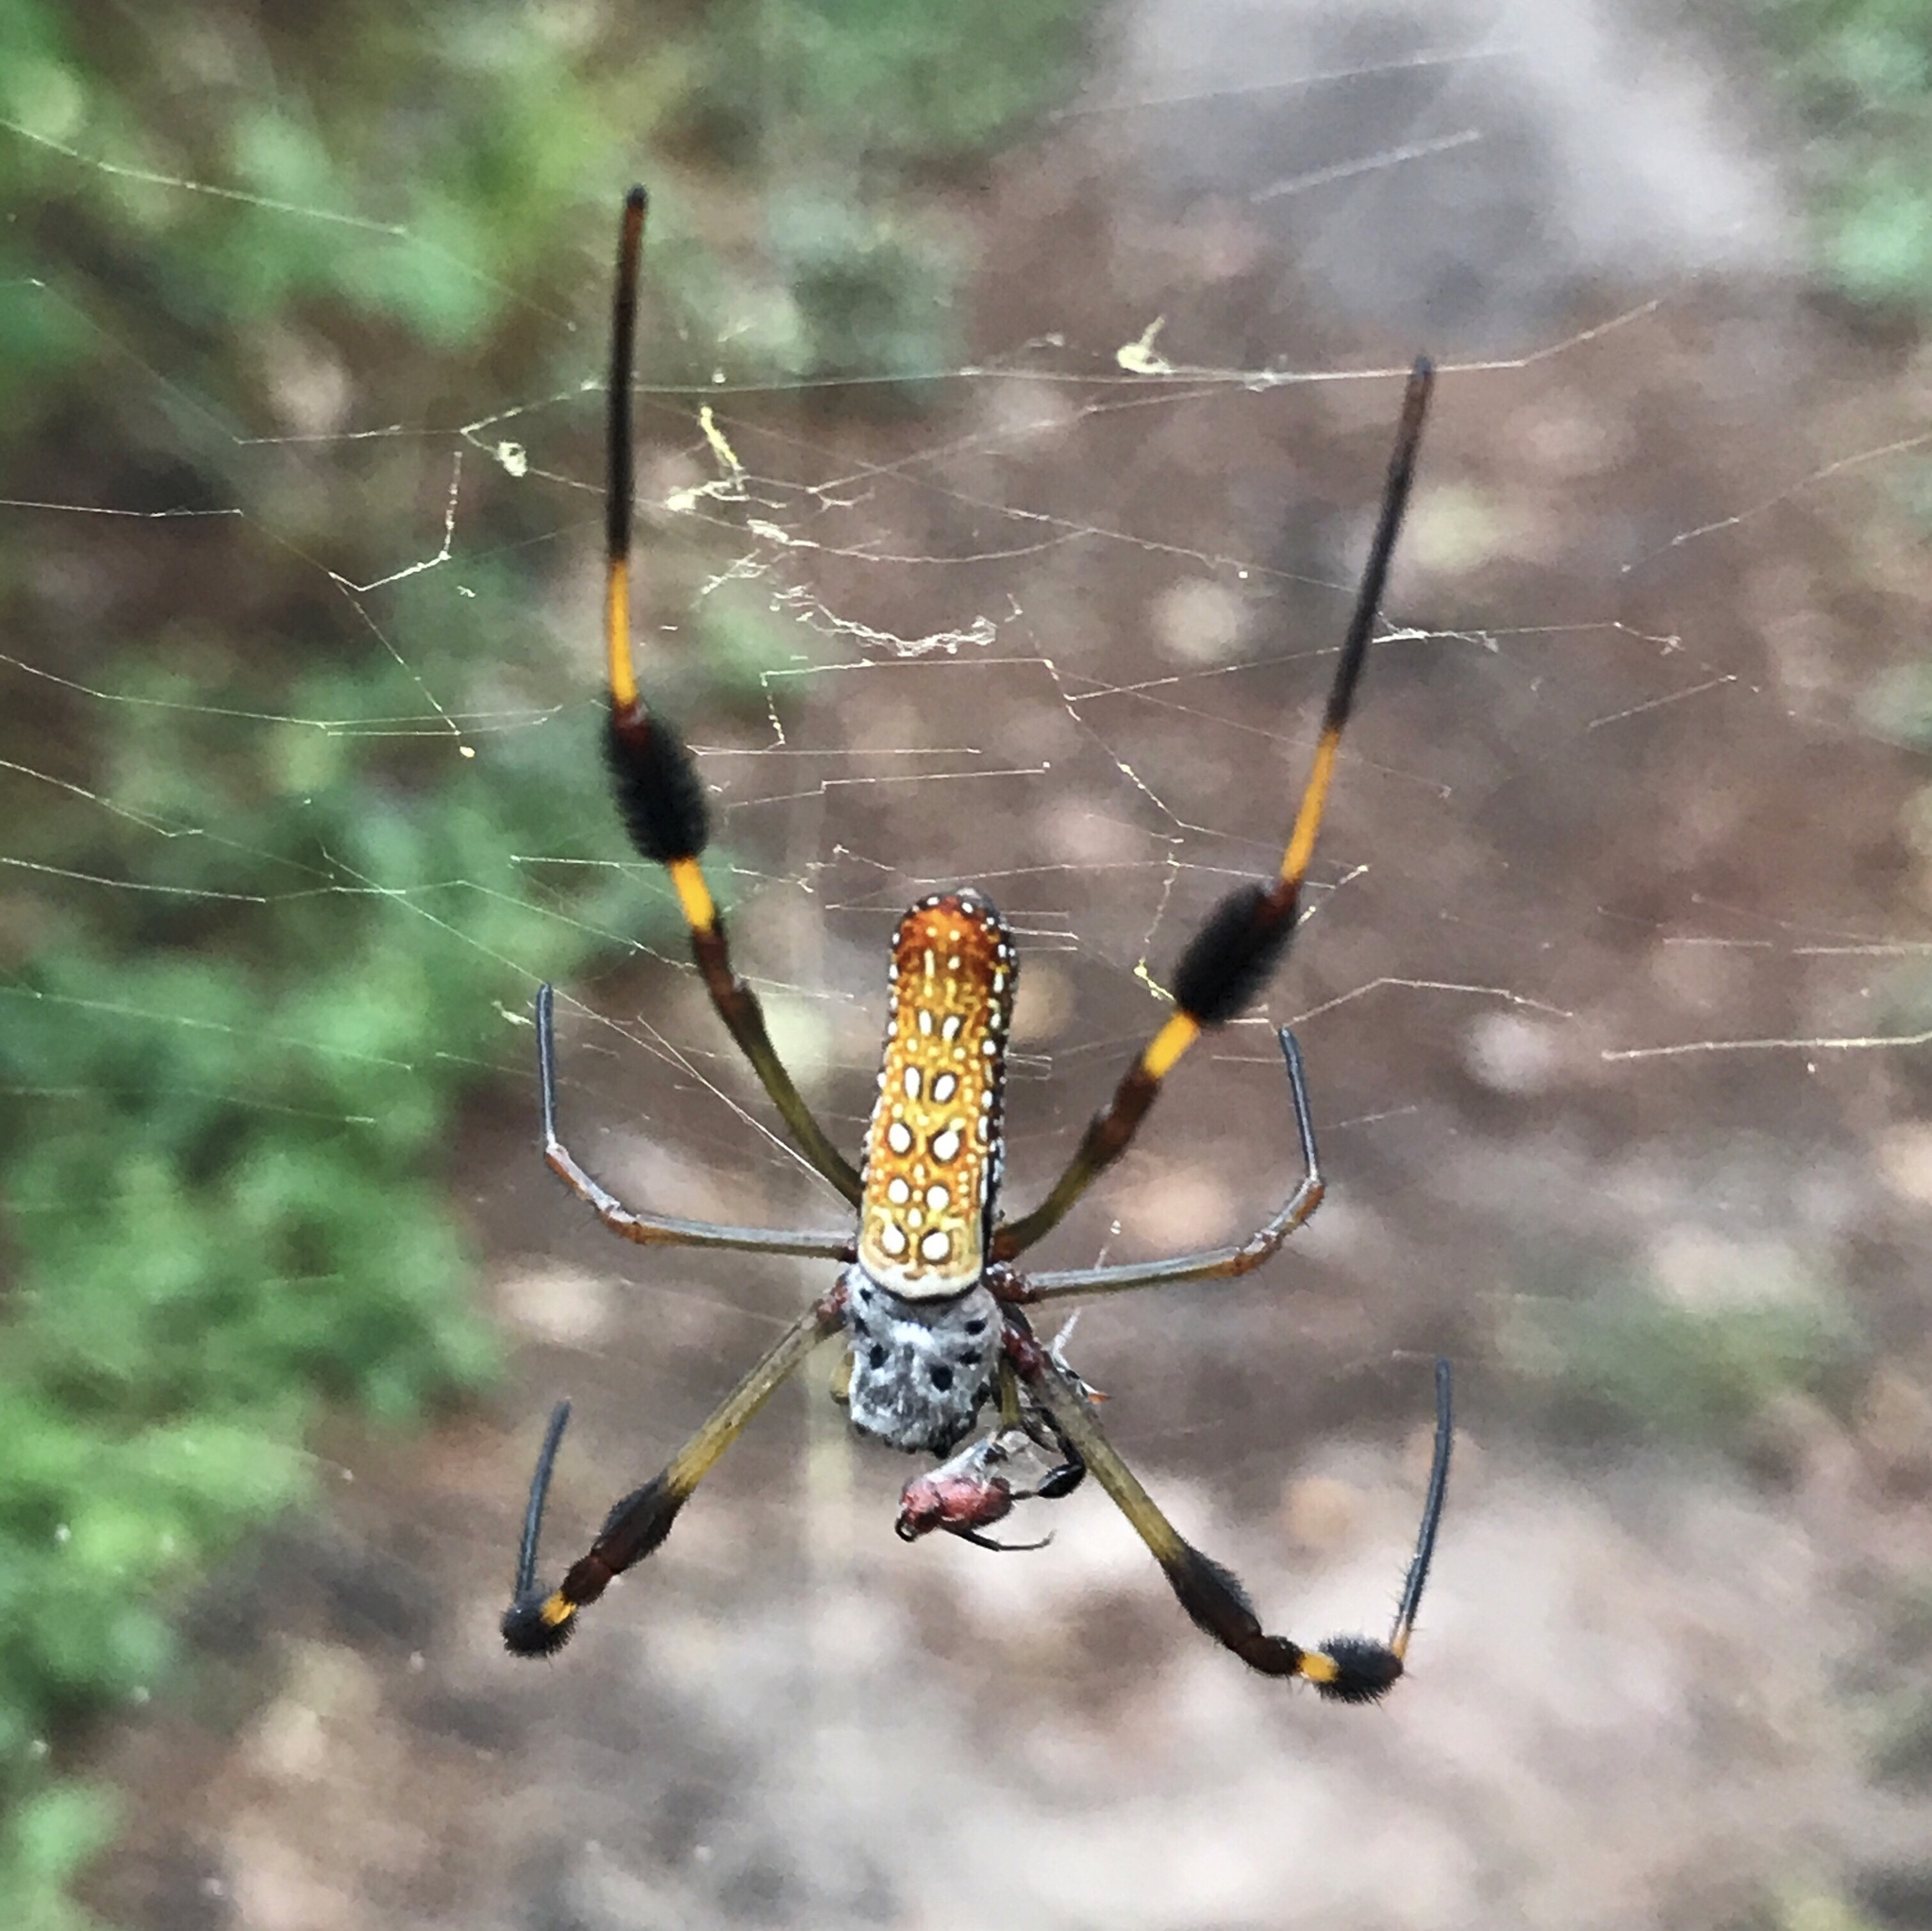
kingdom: Animalia
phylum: Arthropoda
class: Arachnida
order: Araneae
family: Araneidae
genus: Trichonephila
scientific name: Trichonephila clavipes
